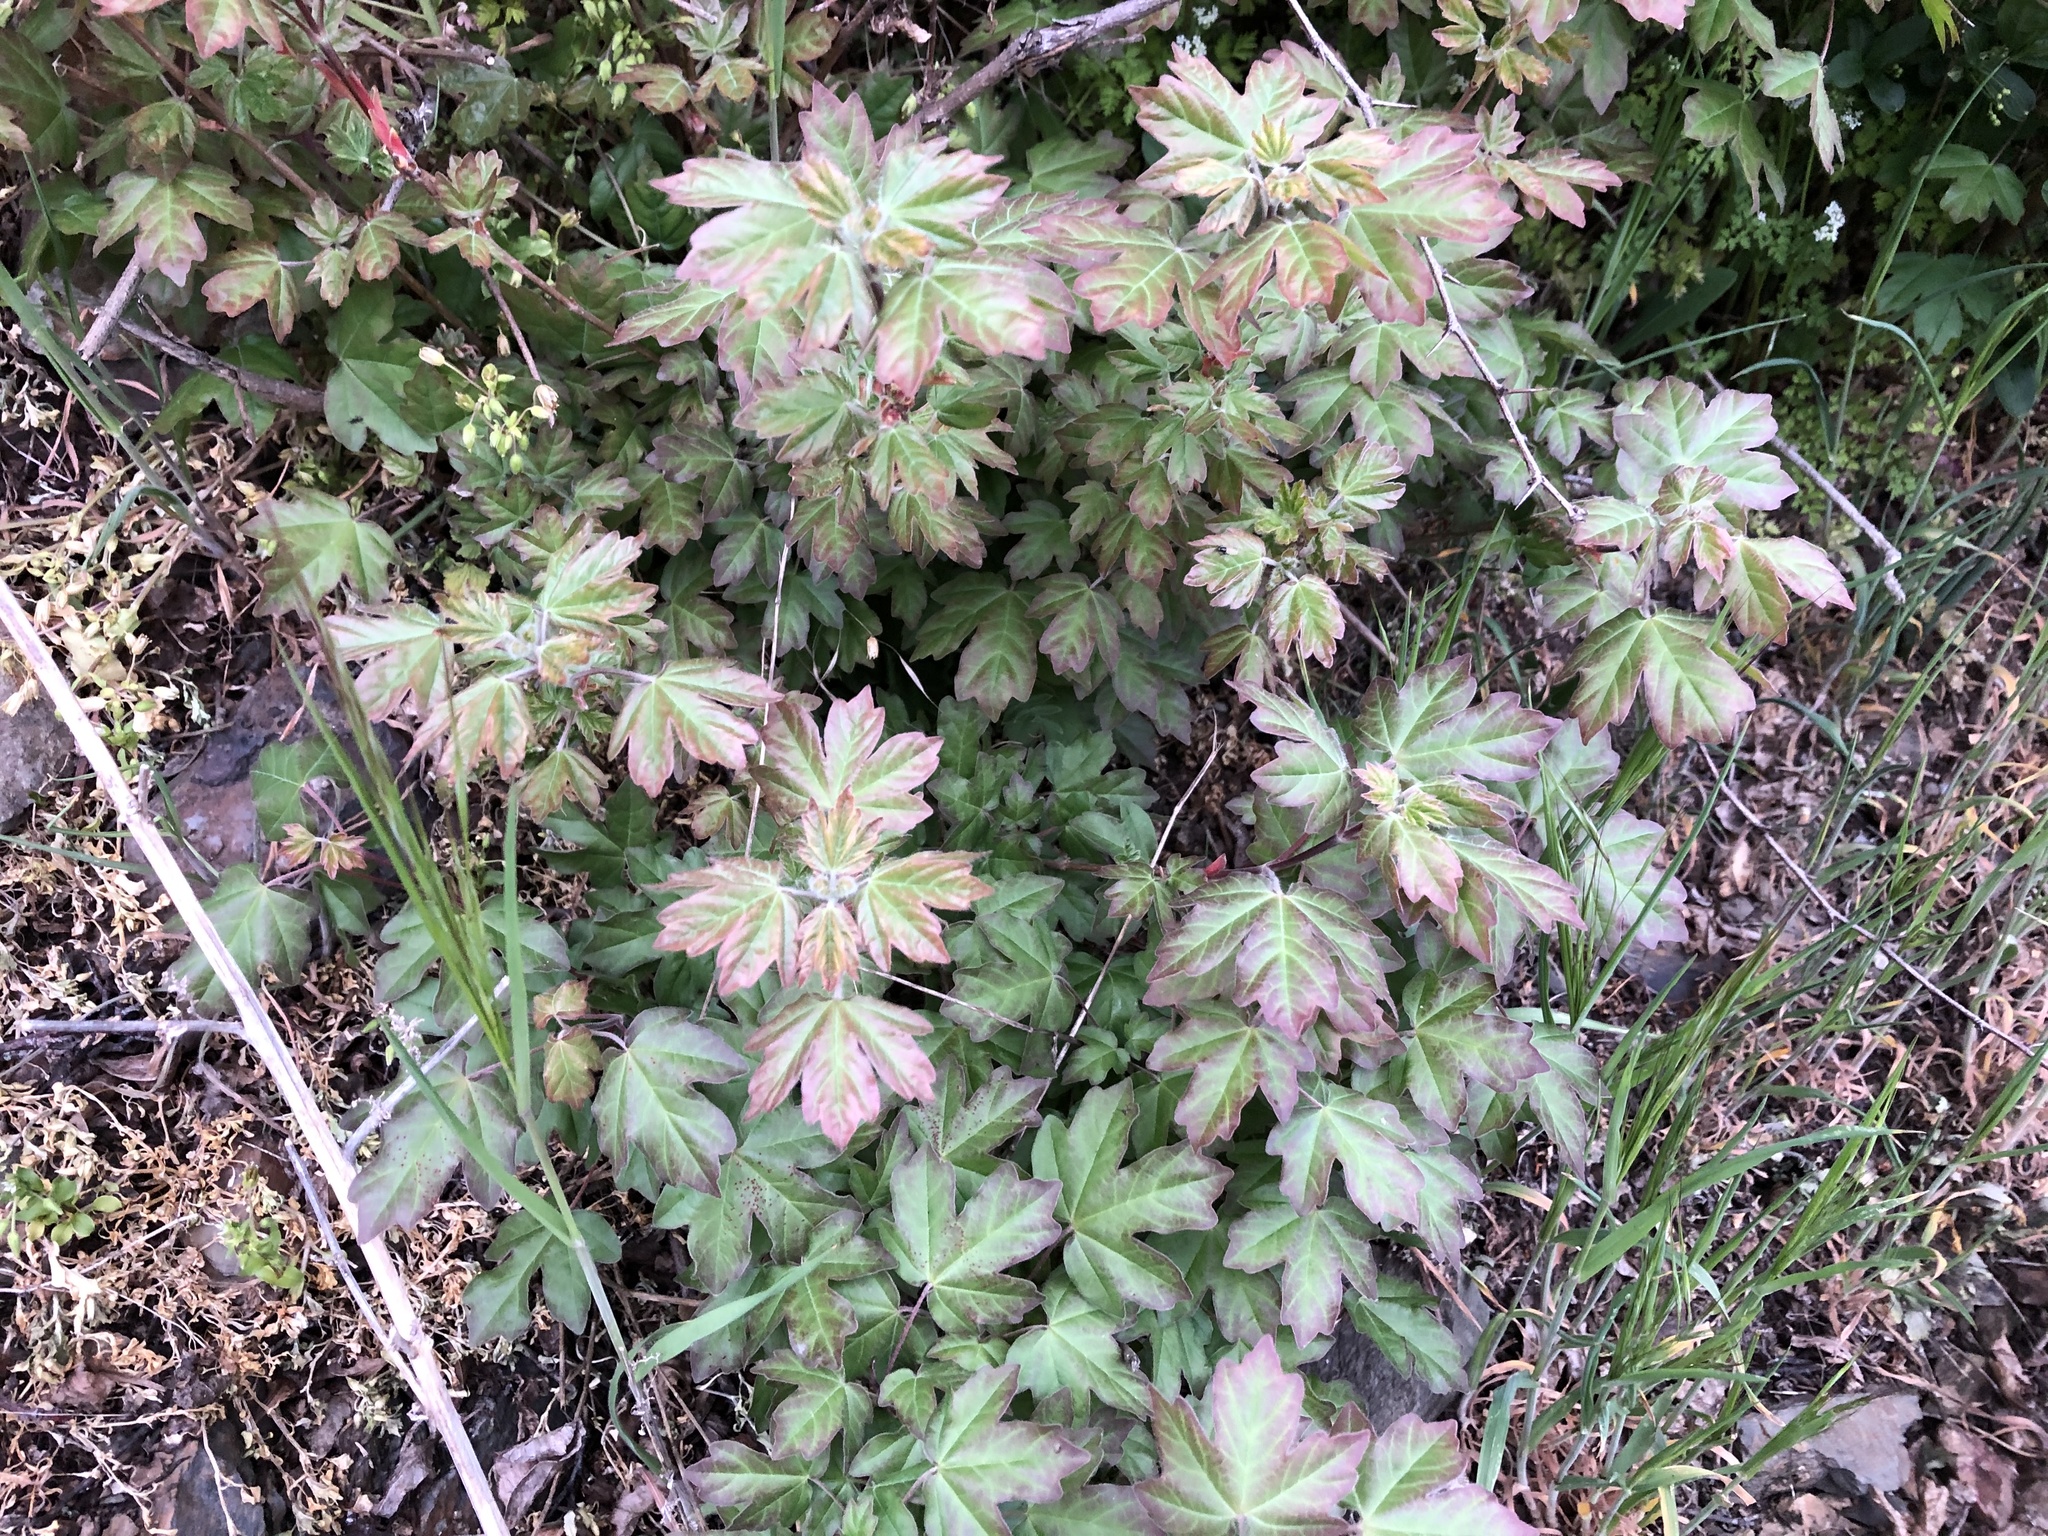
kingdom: Plantae
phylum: Tracheophyta
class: Magnoliopsida
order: Sapindales
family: Sapindaceae
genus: Acer
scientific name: Acer campestre
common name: Field maple
